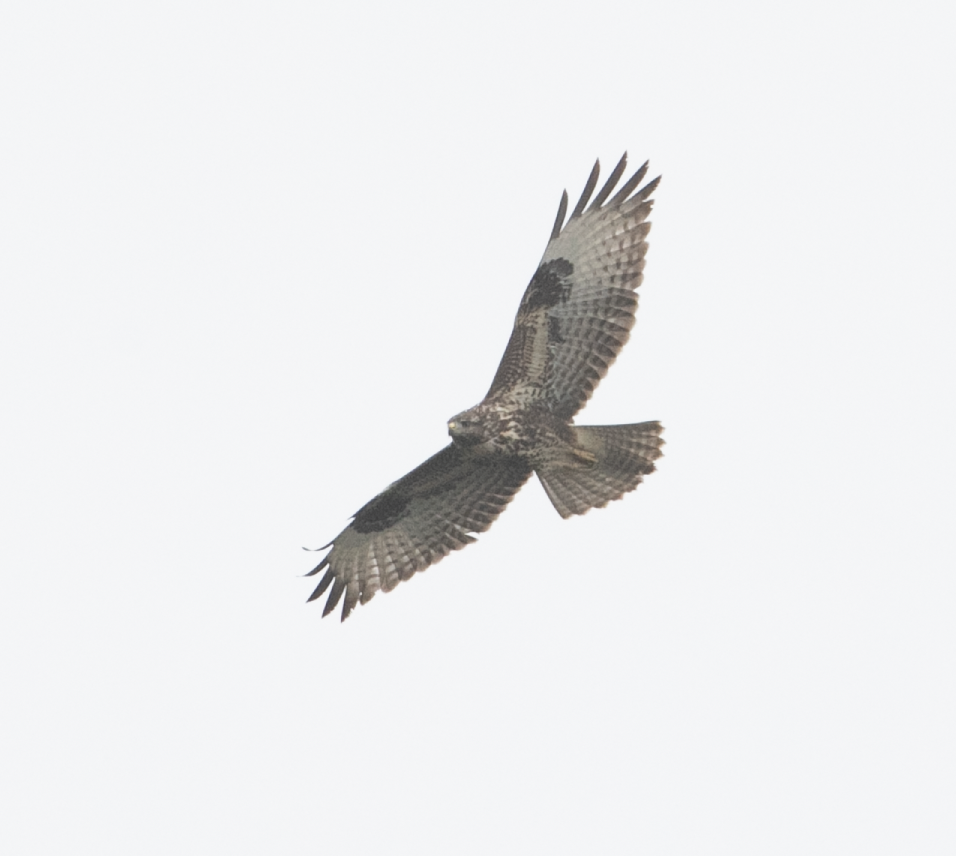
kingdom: Animalia
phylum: Chordata
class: Aves
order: Accipitriformes
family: Accipitridae
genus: Buteo
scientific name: Buteo buteo
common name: Common buzzard
